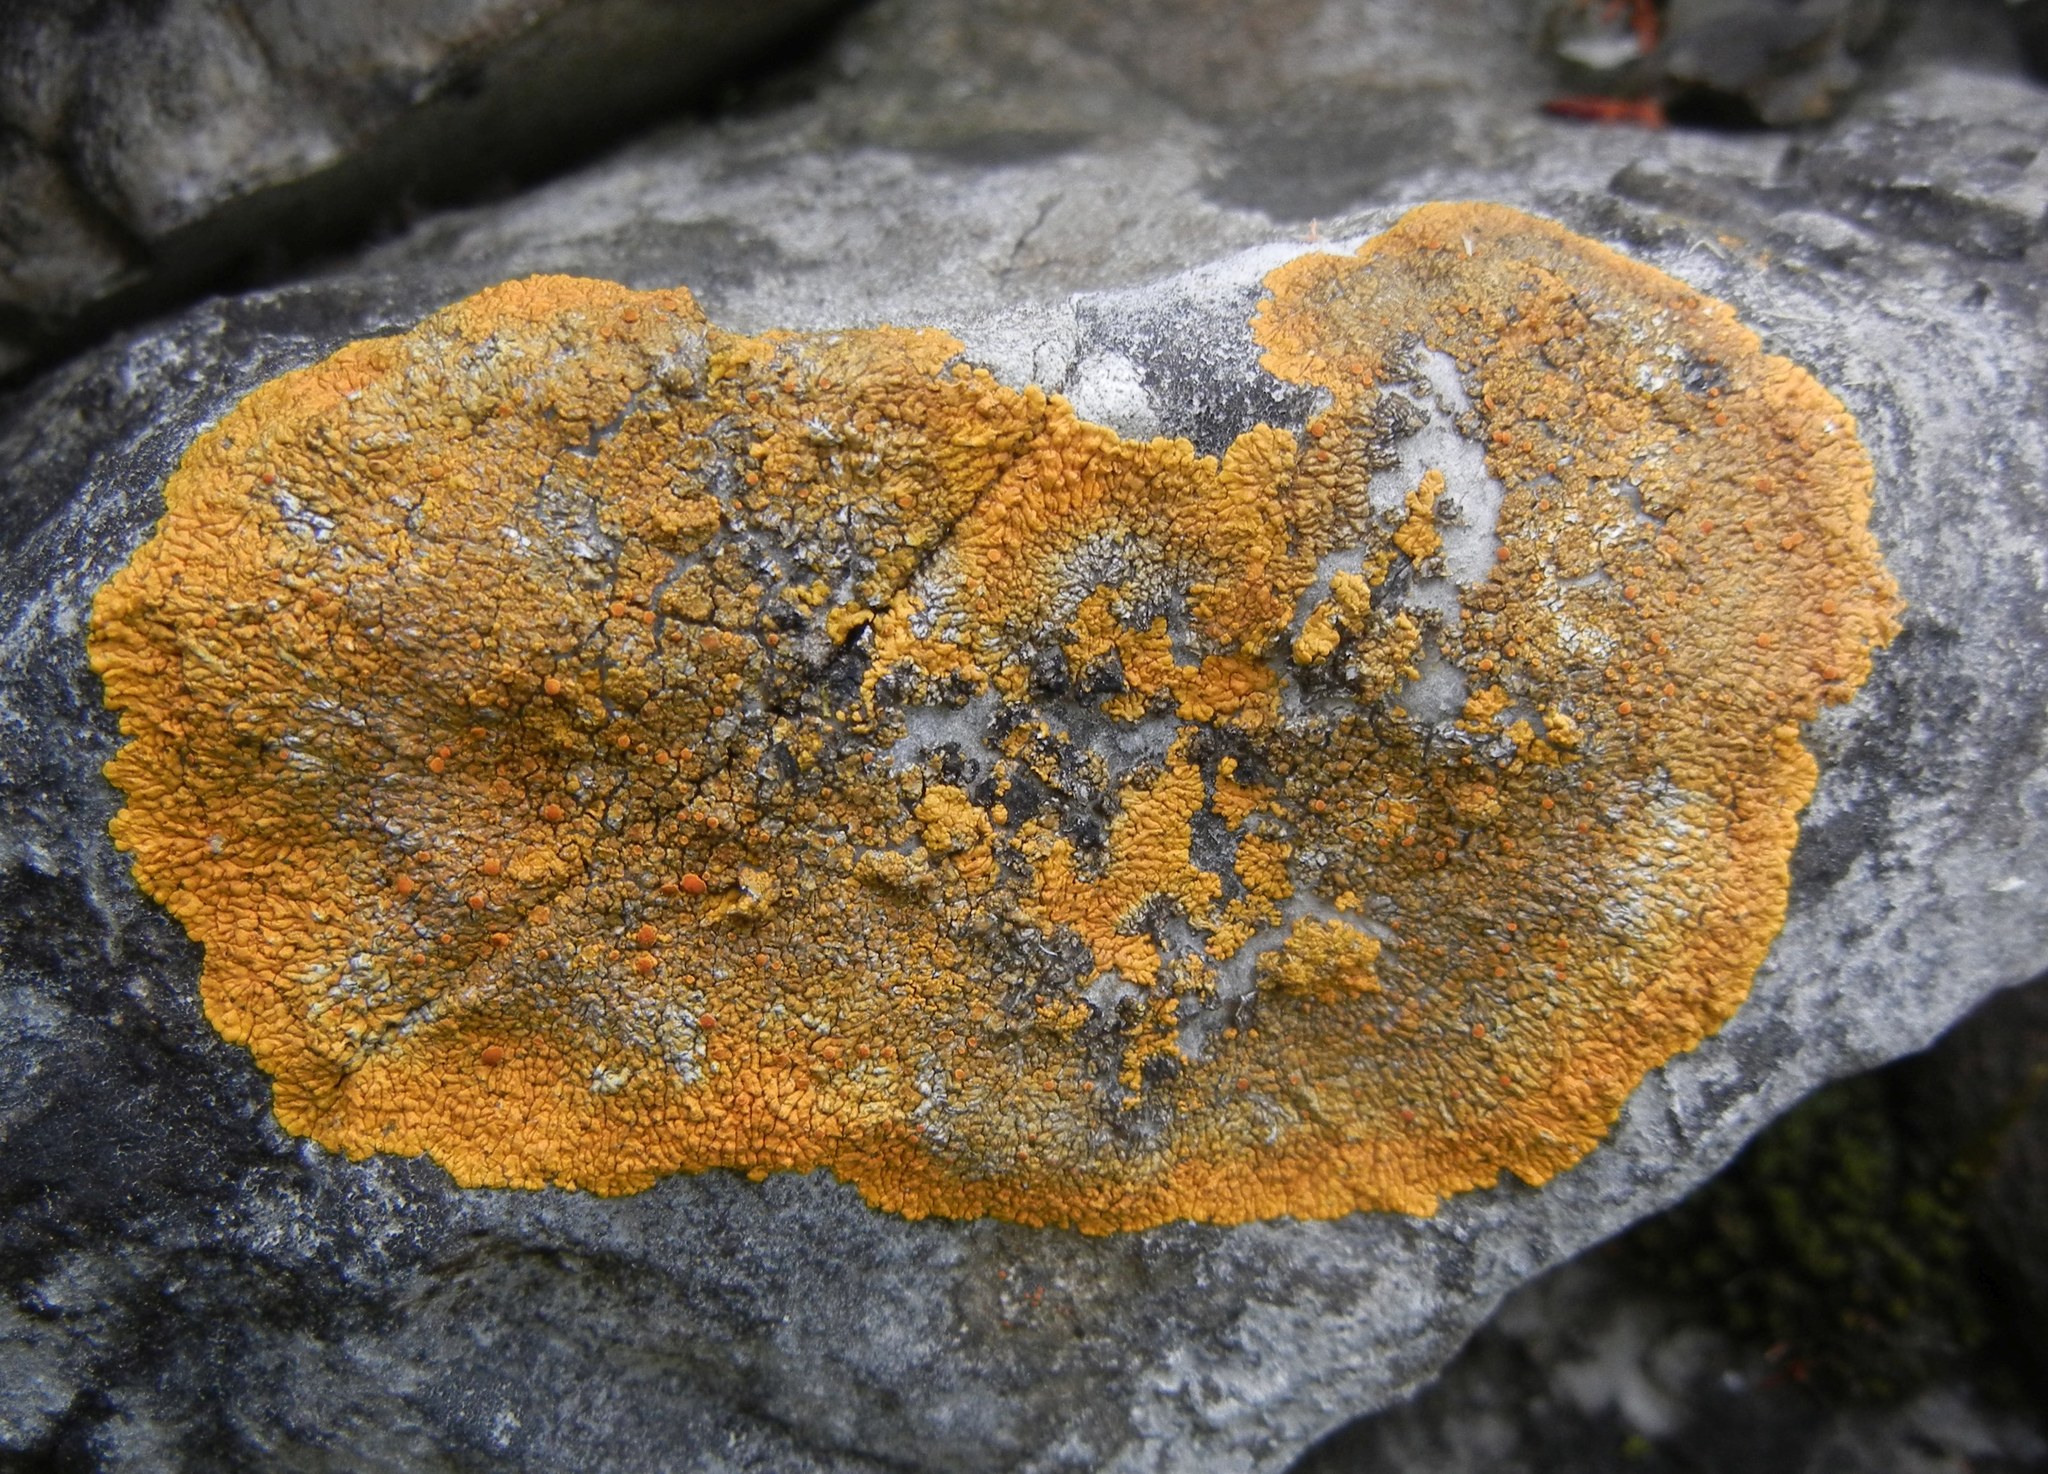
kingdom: Fungi
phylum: Ascomycota
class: Lecanoromycetes
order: Teloschistales
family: Teloschistaceae
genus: Variospora
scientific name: Variospora flavescens
